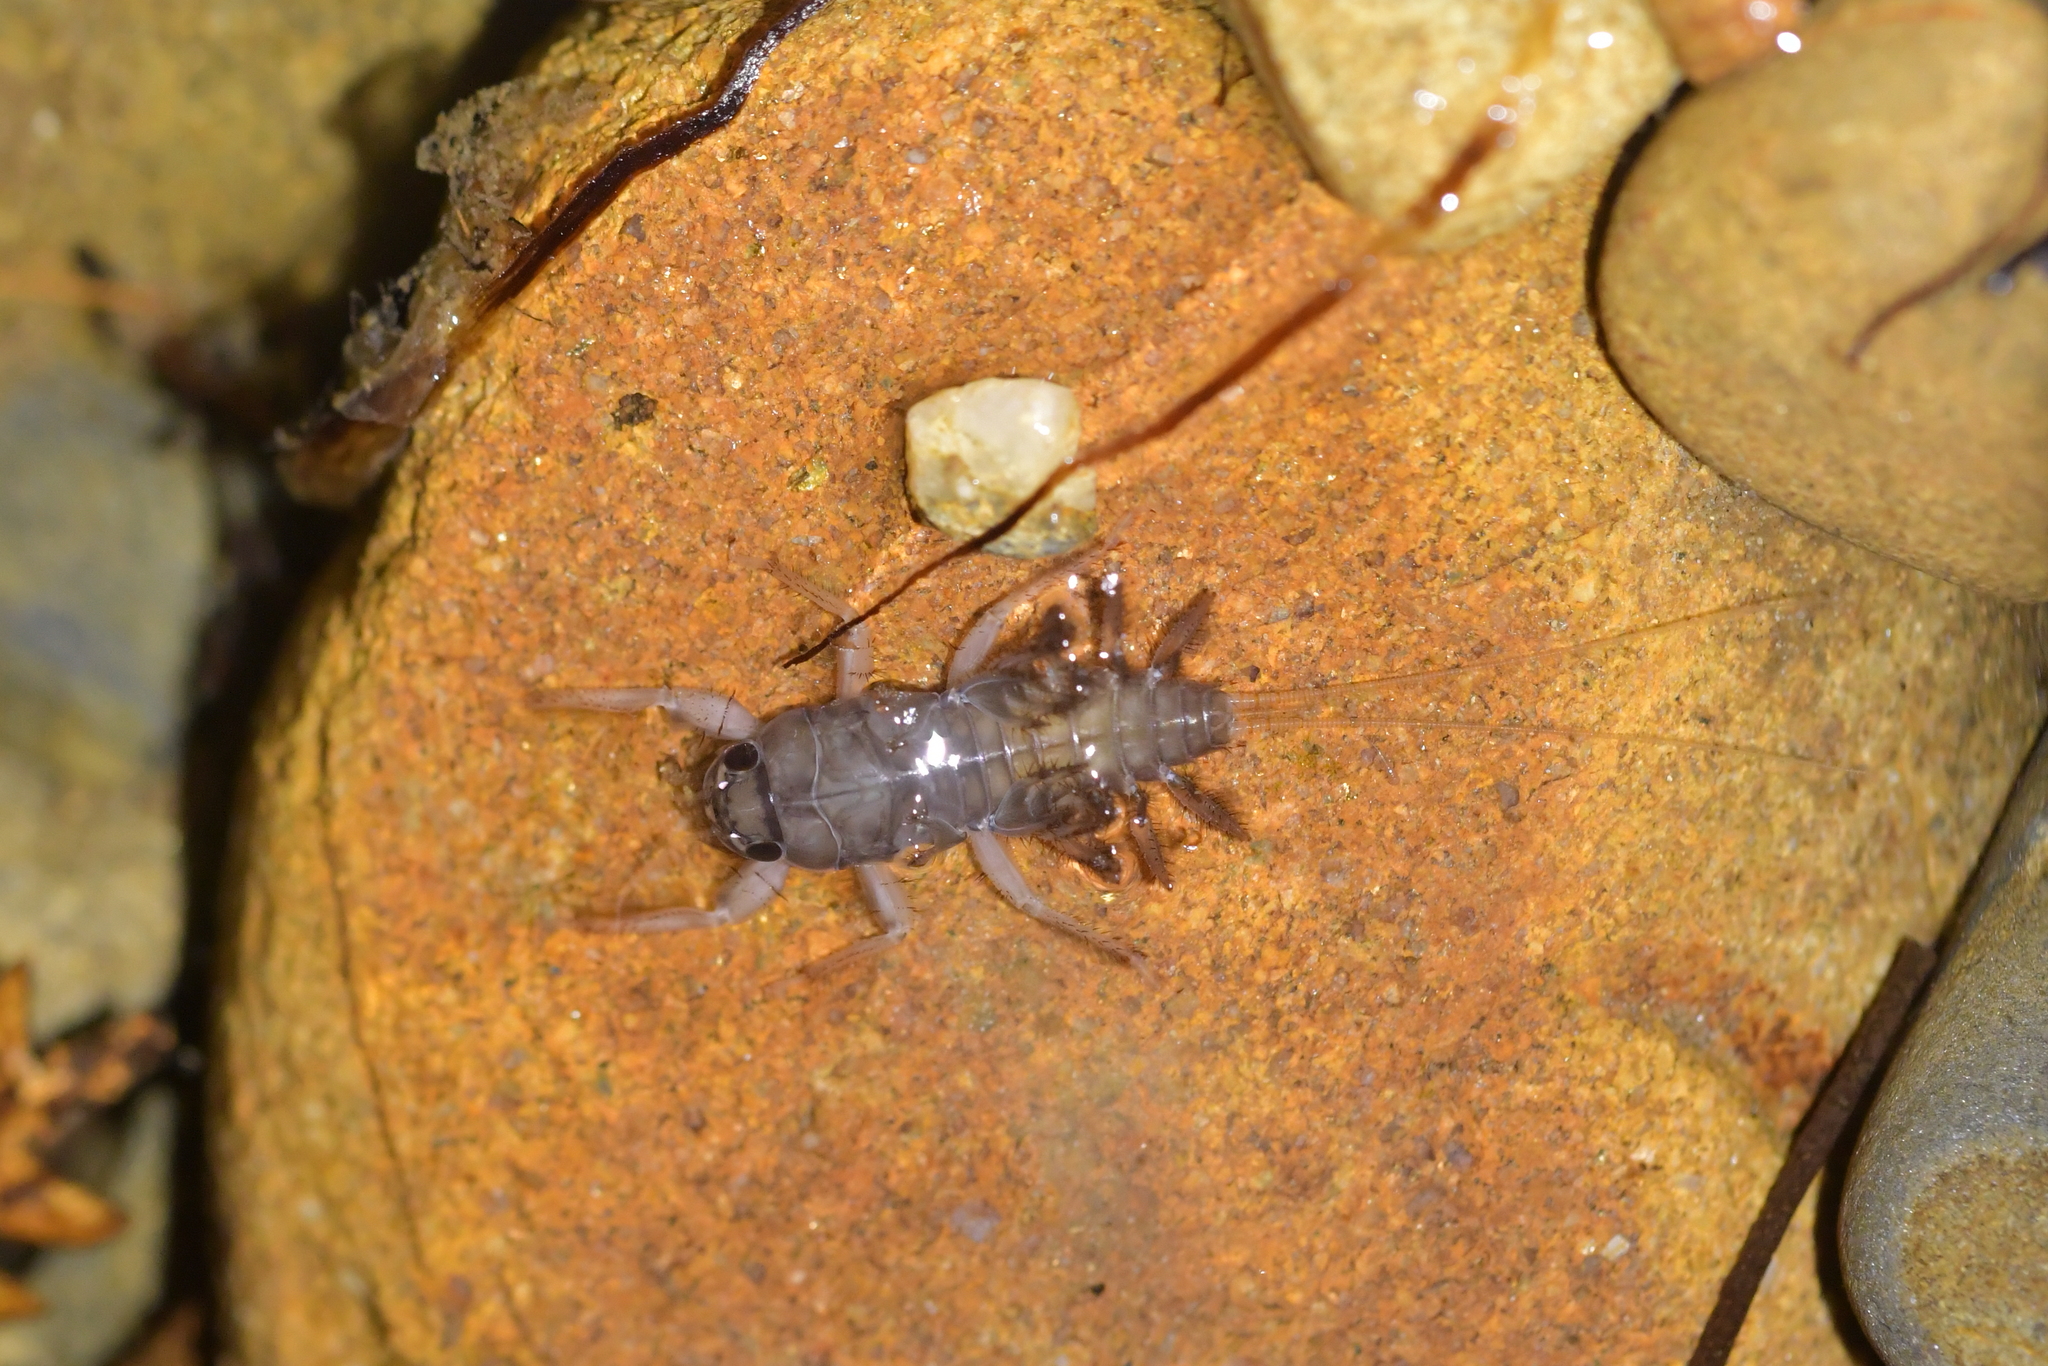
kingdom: Animalia
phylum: Arthropoda
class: Insecta
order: Ephemeroptera
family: Coloburiscidae
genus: Coloburiscus
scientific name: Coloburiscus humeralis
